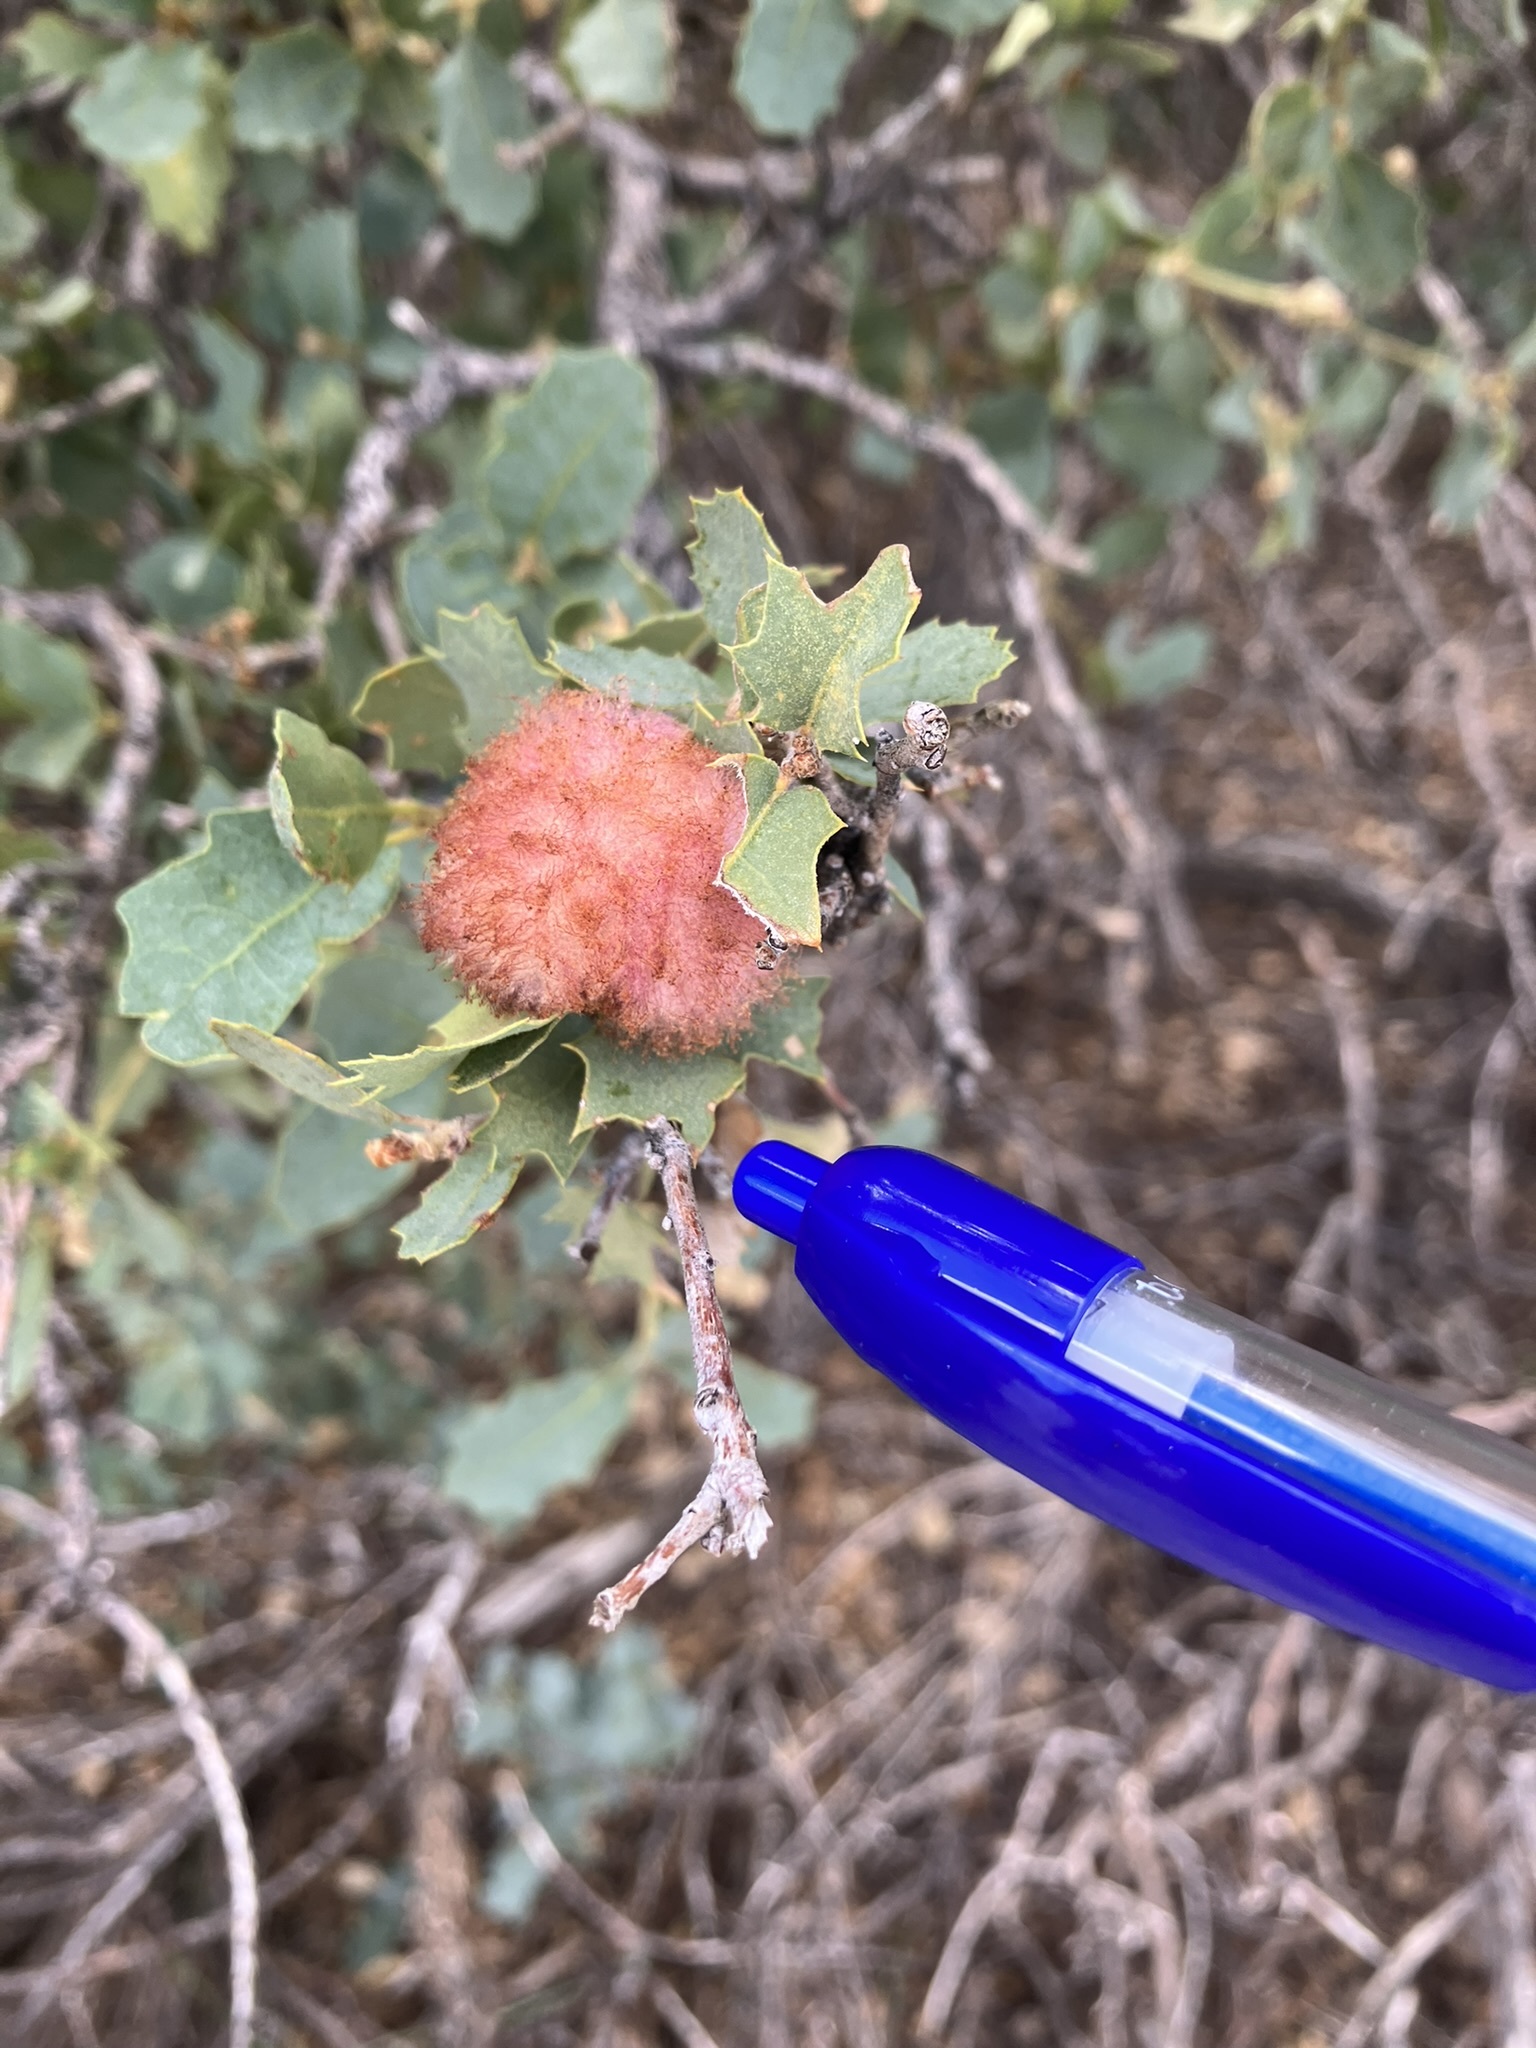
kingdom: Animalia
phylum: Arthropoda
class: Insecta
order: Hymenoptera
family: Cynipidae
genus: Andricus
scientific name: Andricus
